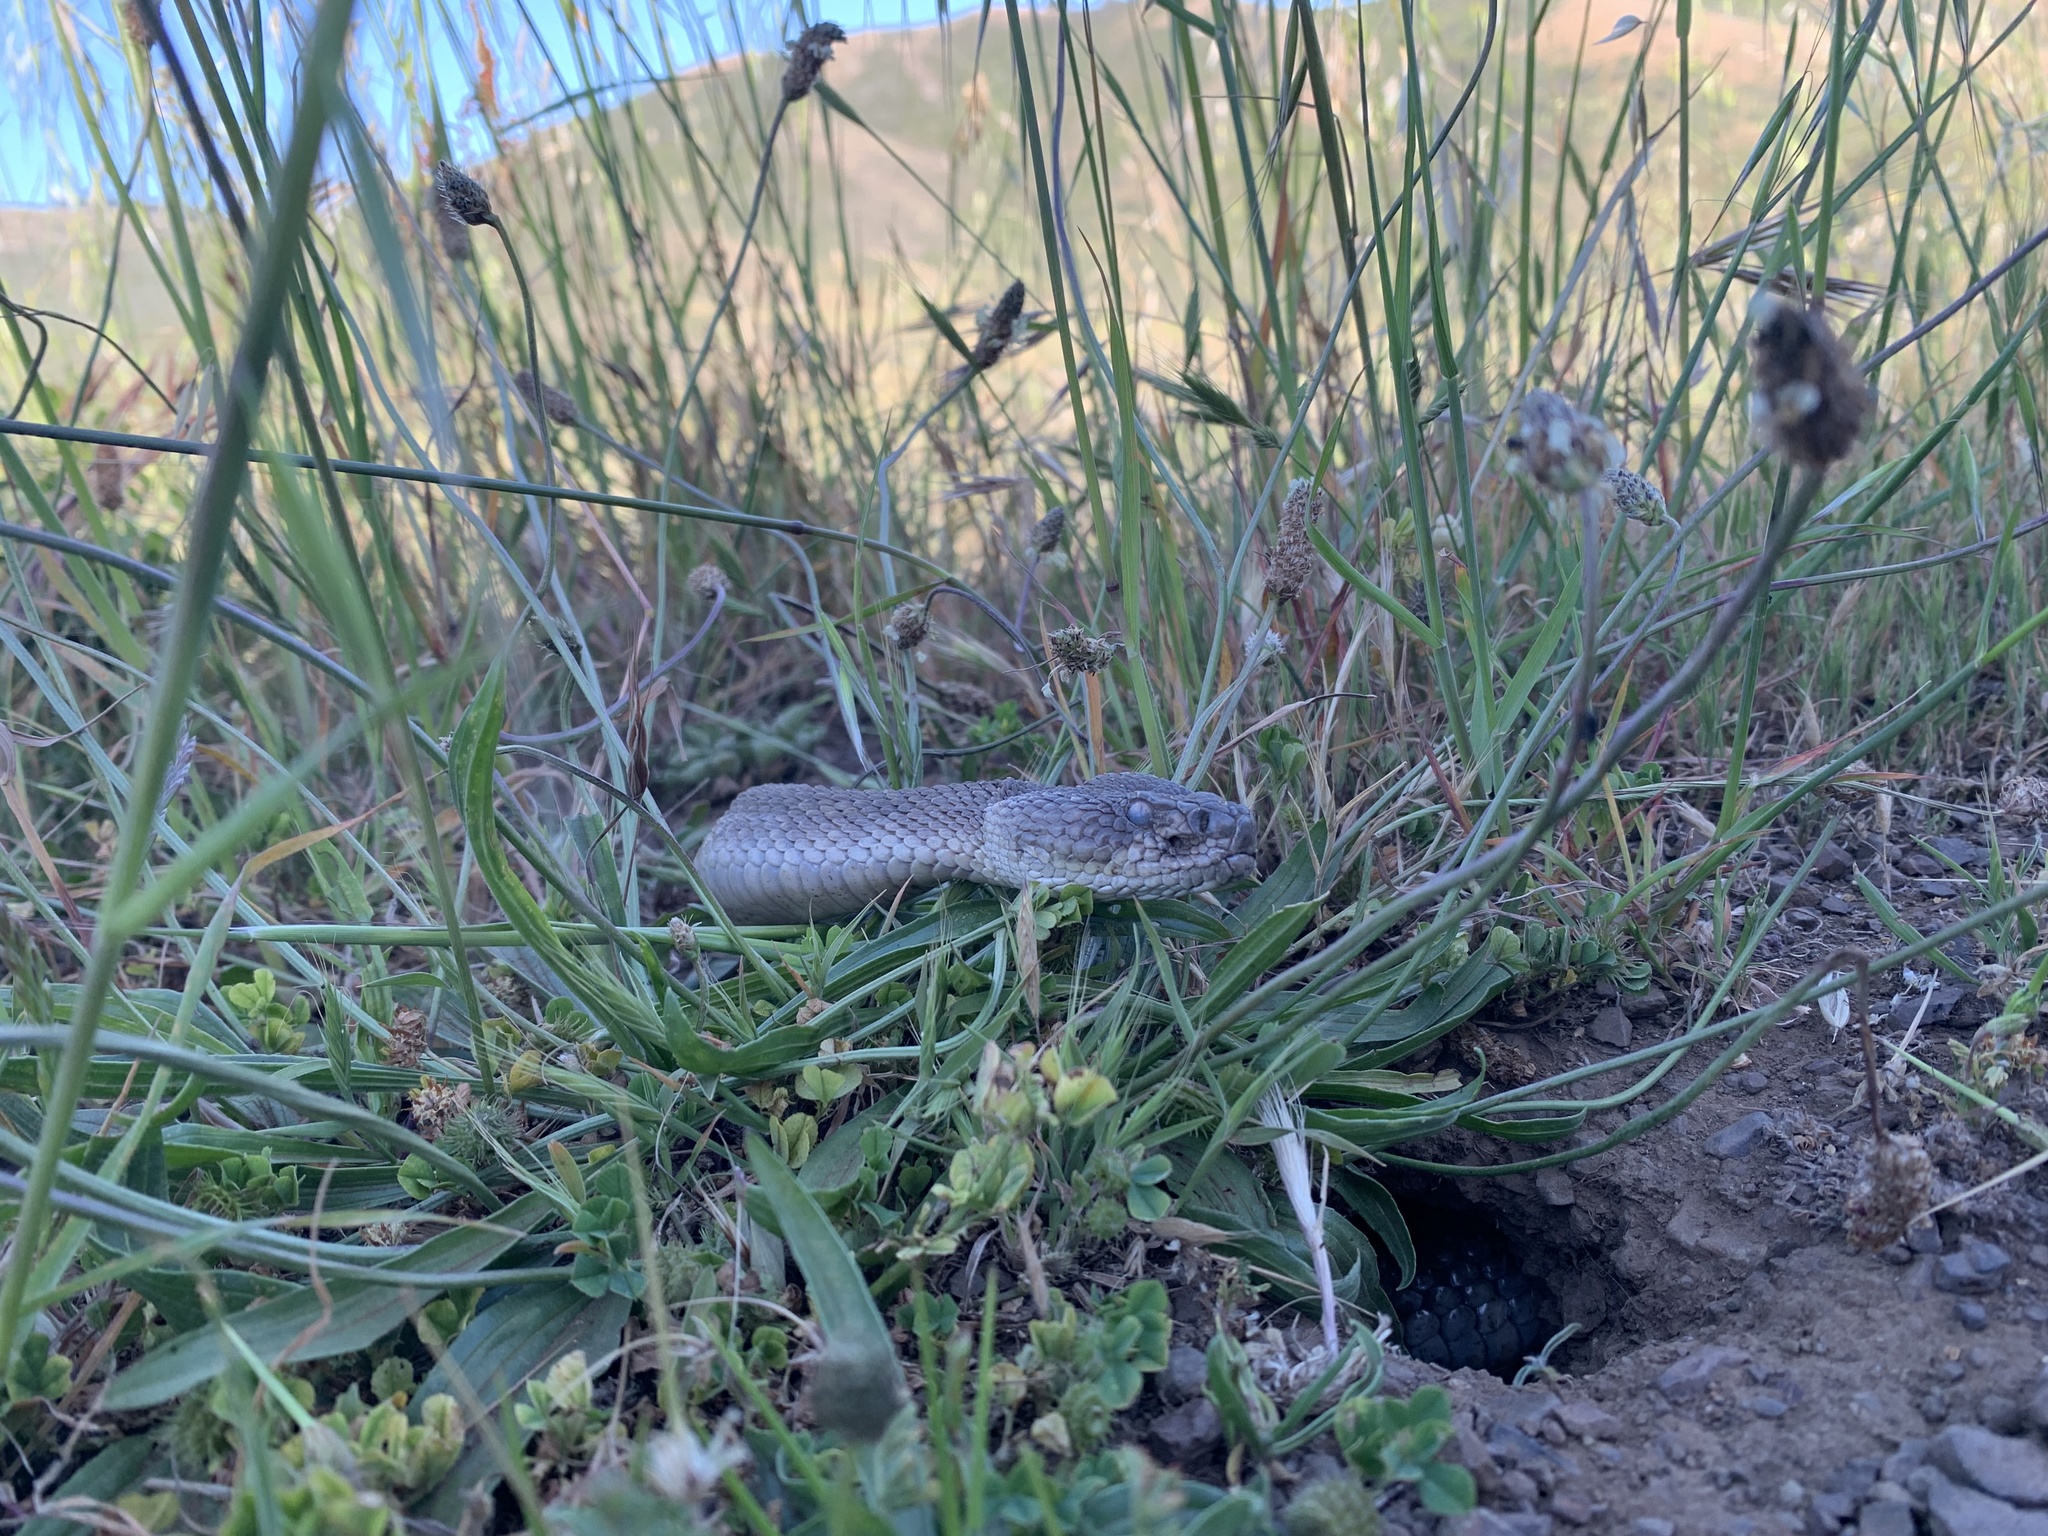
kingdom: Animalia
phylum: Chordata
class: Squamata
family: Viperidae
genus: Crotalus
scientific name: Crotalus oreganus
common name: Abyssus
